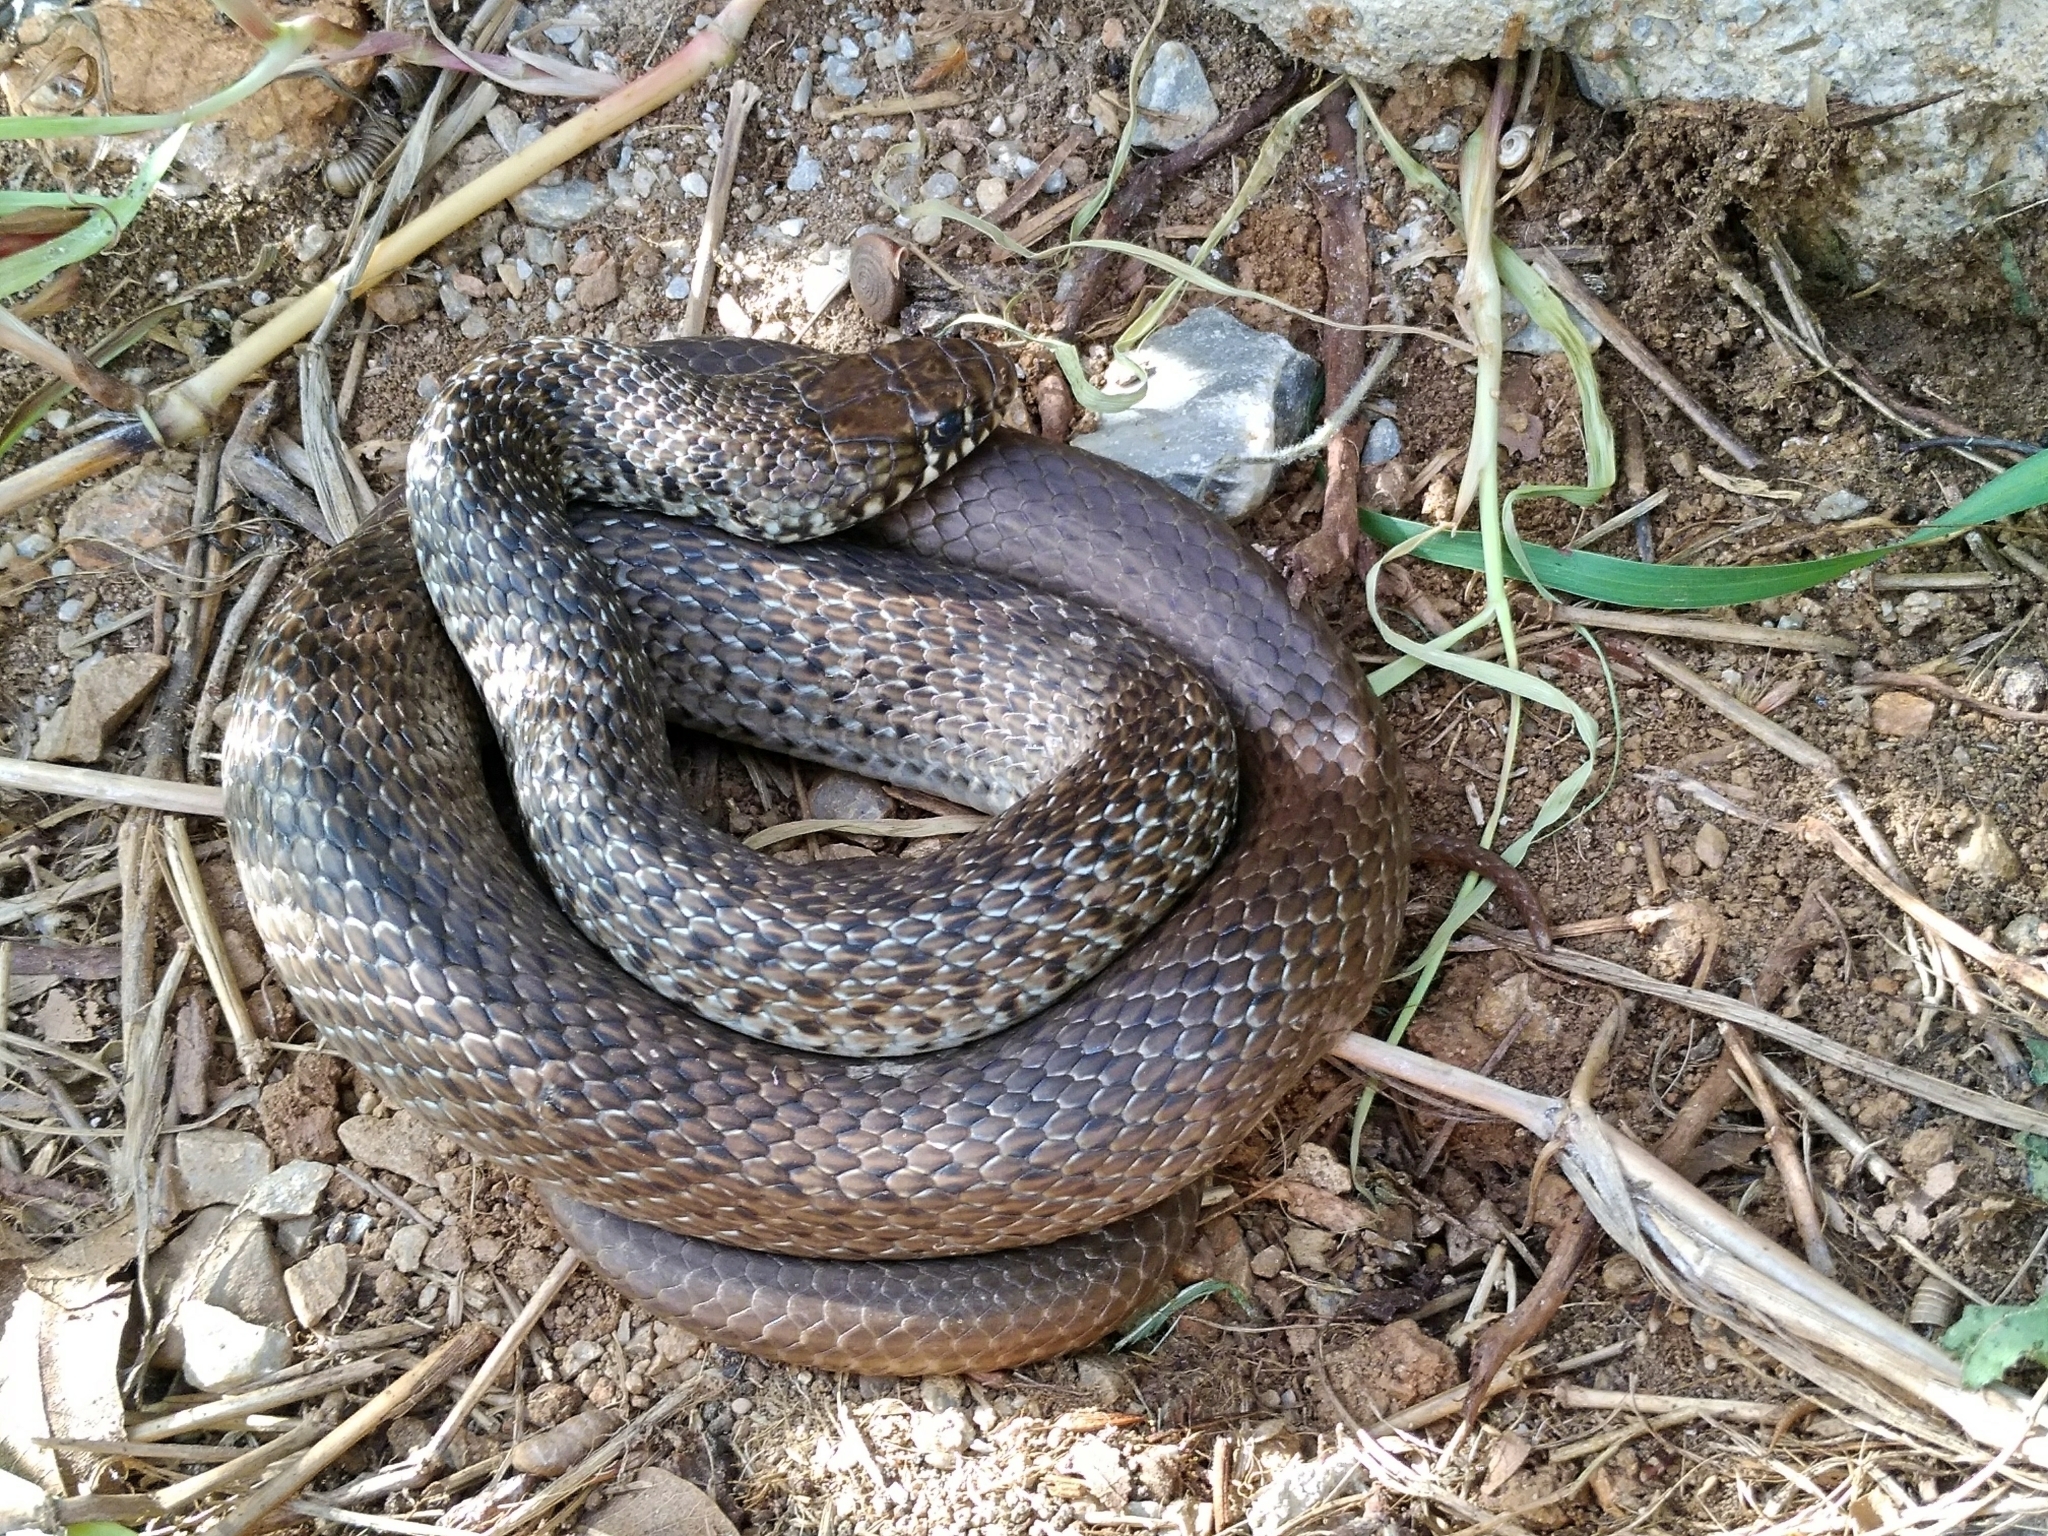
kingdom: Animalia
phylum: Chordata
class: Squamata
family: Colubridae
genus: Hierophis
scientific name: Hierophis gemonensis
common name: Balkan whip snake
